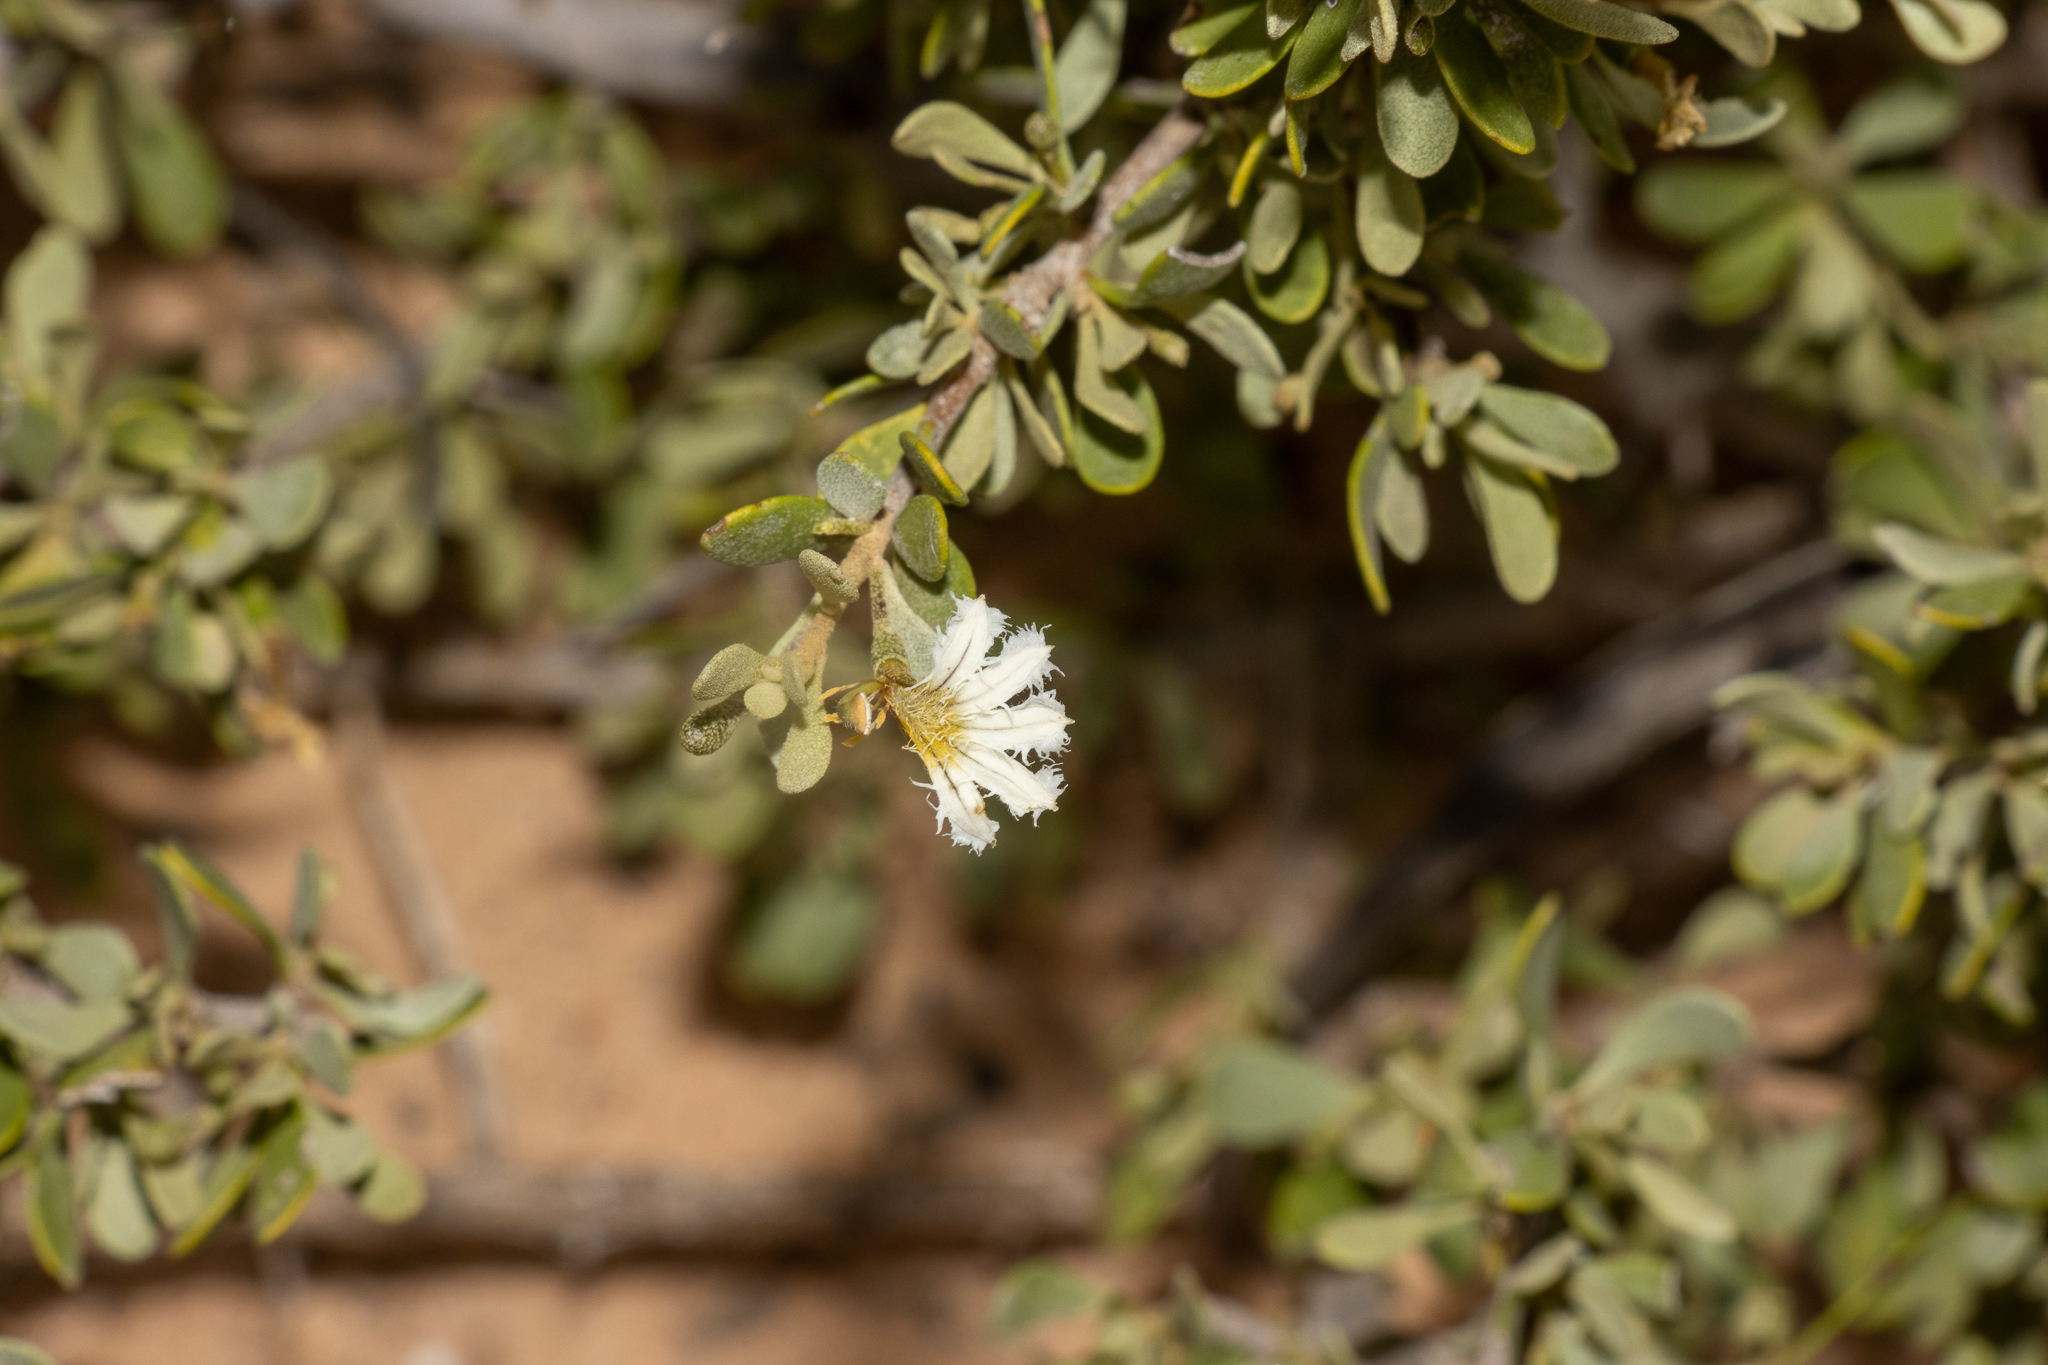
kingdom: Plantae
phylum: Tracheophyta
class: Magnoliopsida
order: Asterales
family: Goodeniaceae
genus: Scaevola
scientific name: Scaevola bursariifolia
